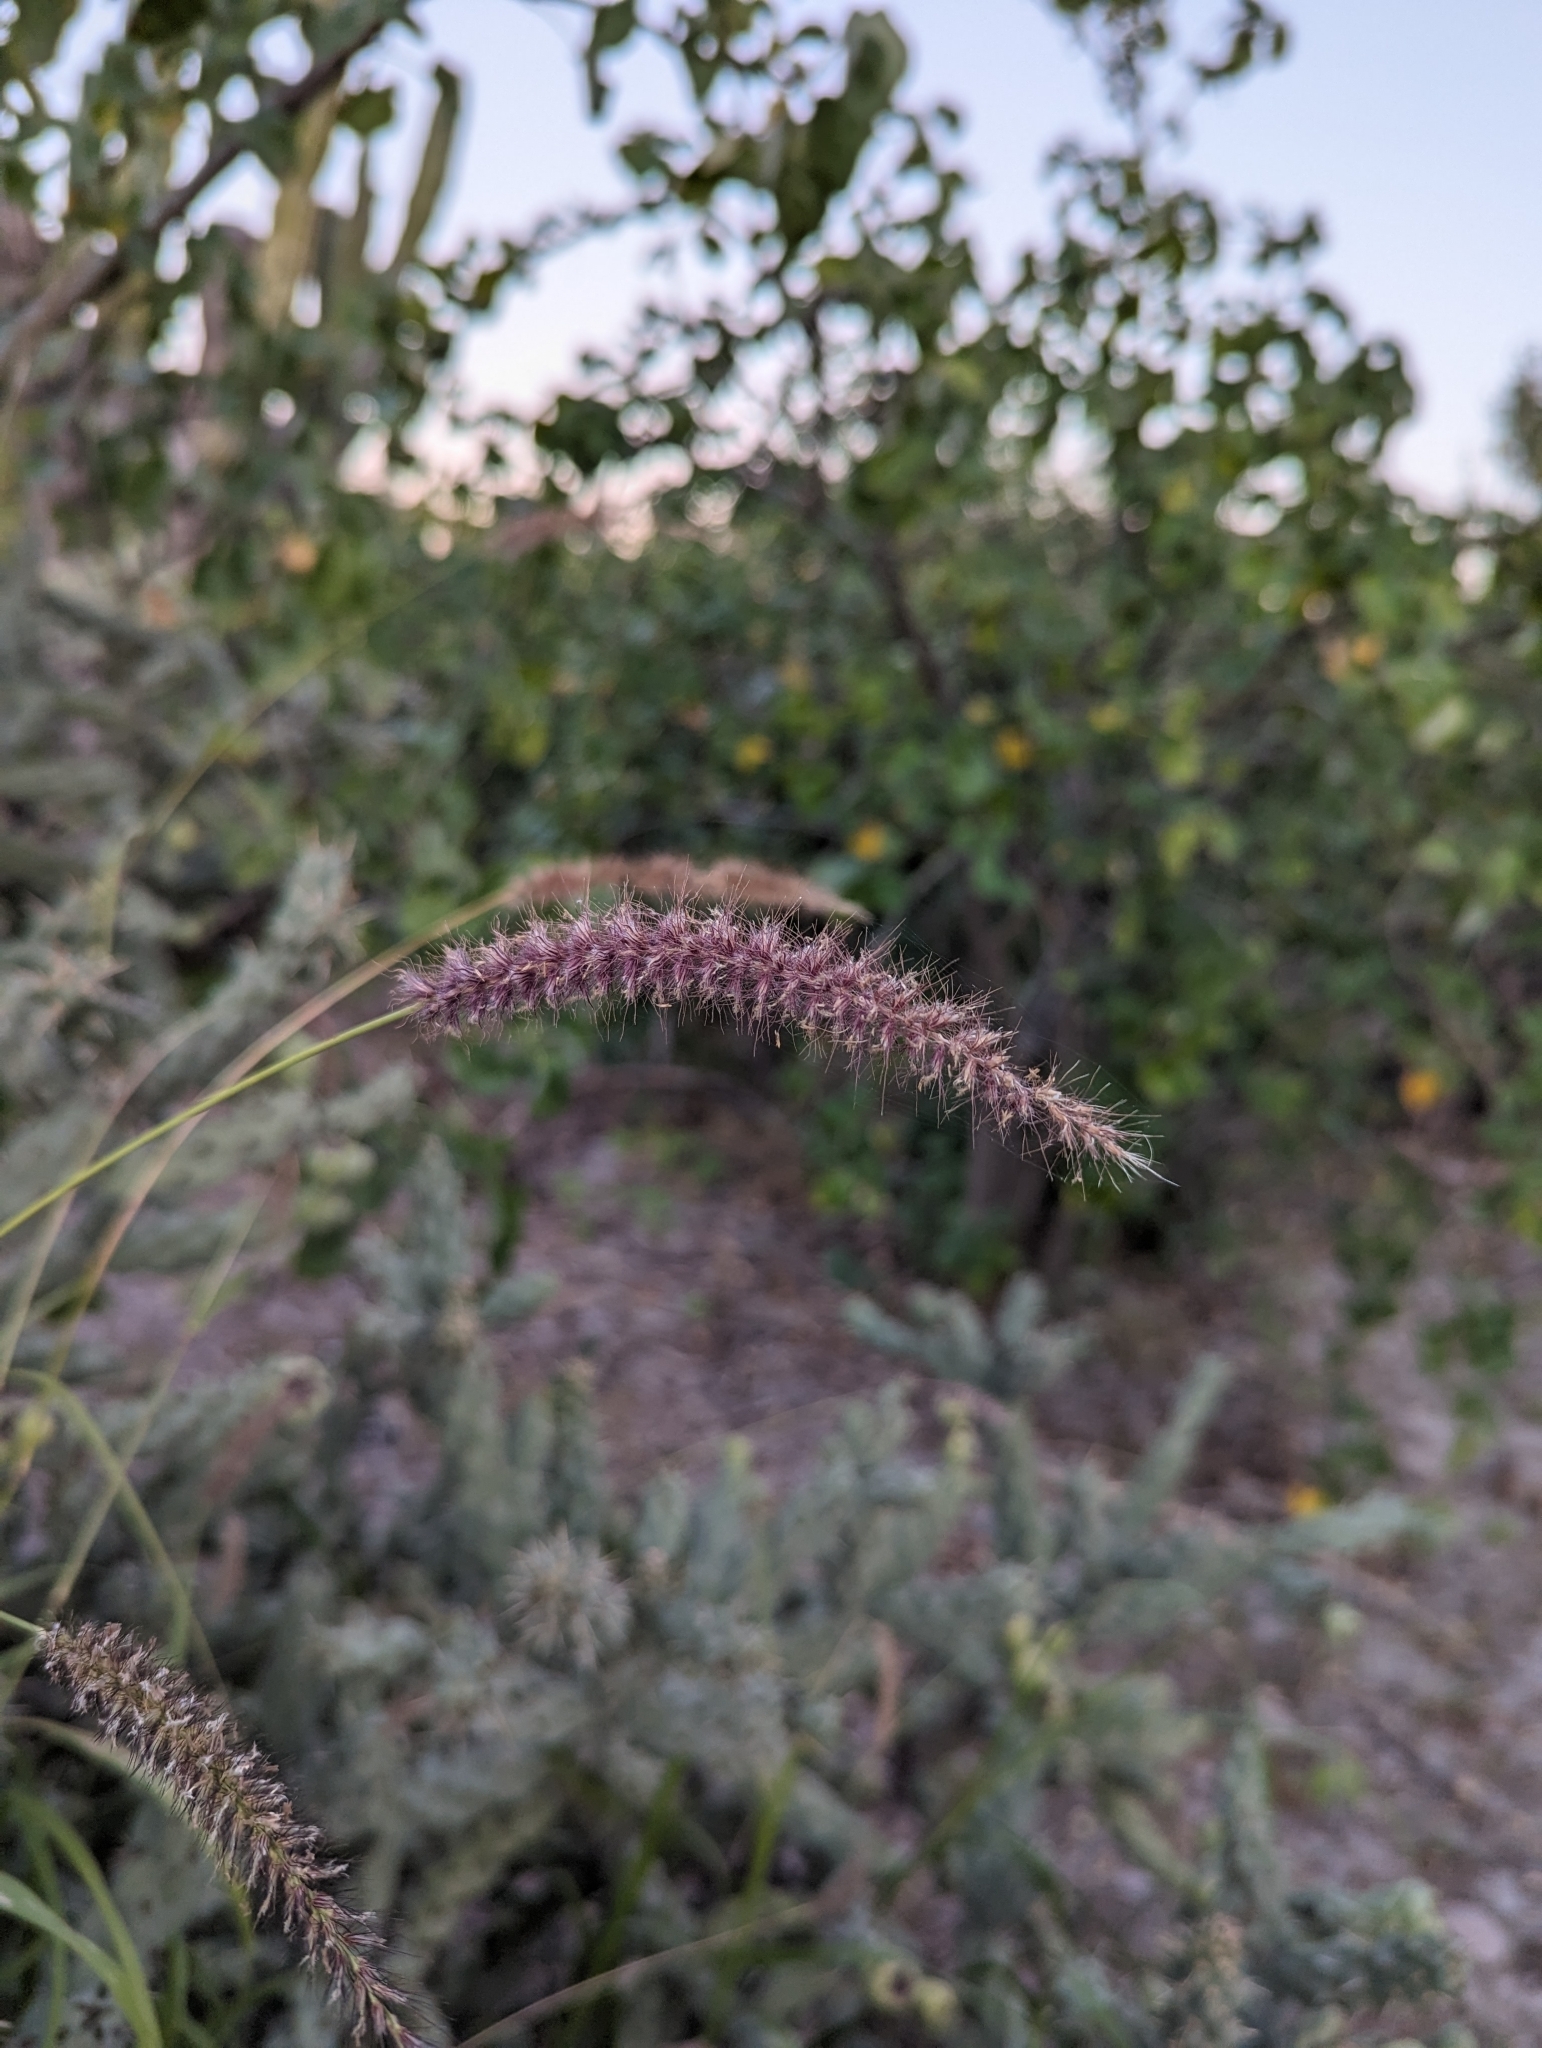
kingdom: Plantae
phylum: Tracheophyta
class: Liliopsida
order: Poales
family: Poaceae
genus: Cenchrus
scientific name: Cenchrus ciliaris
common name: Buffelgrass
